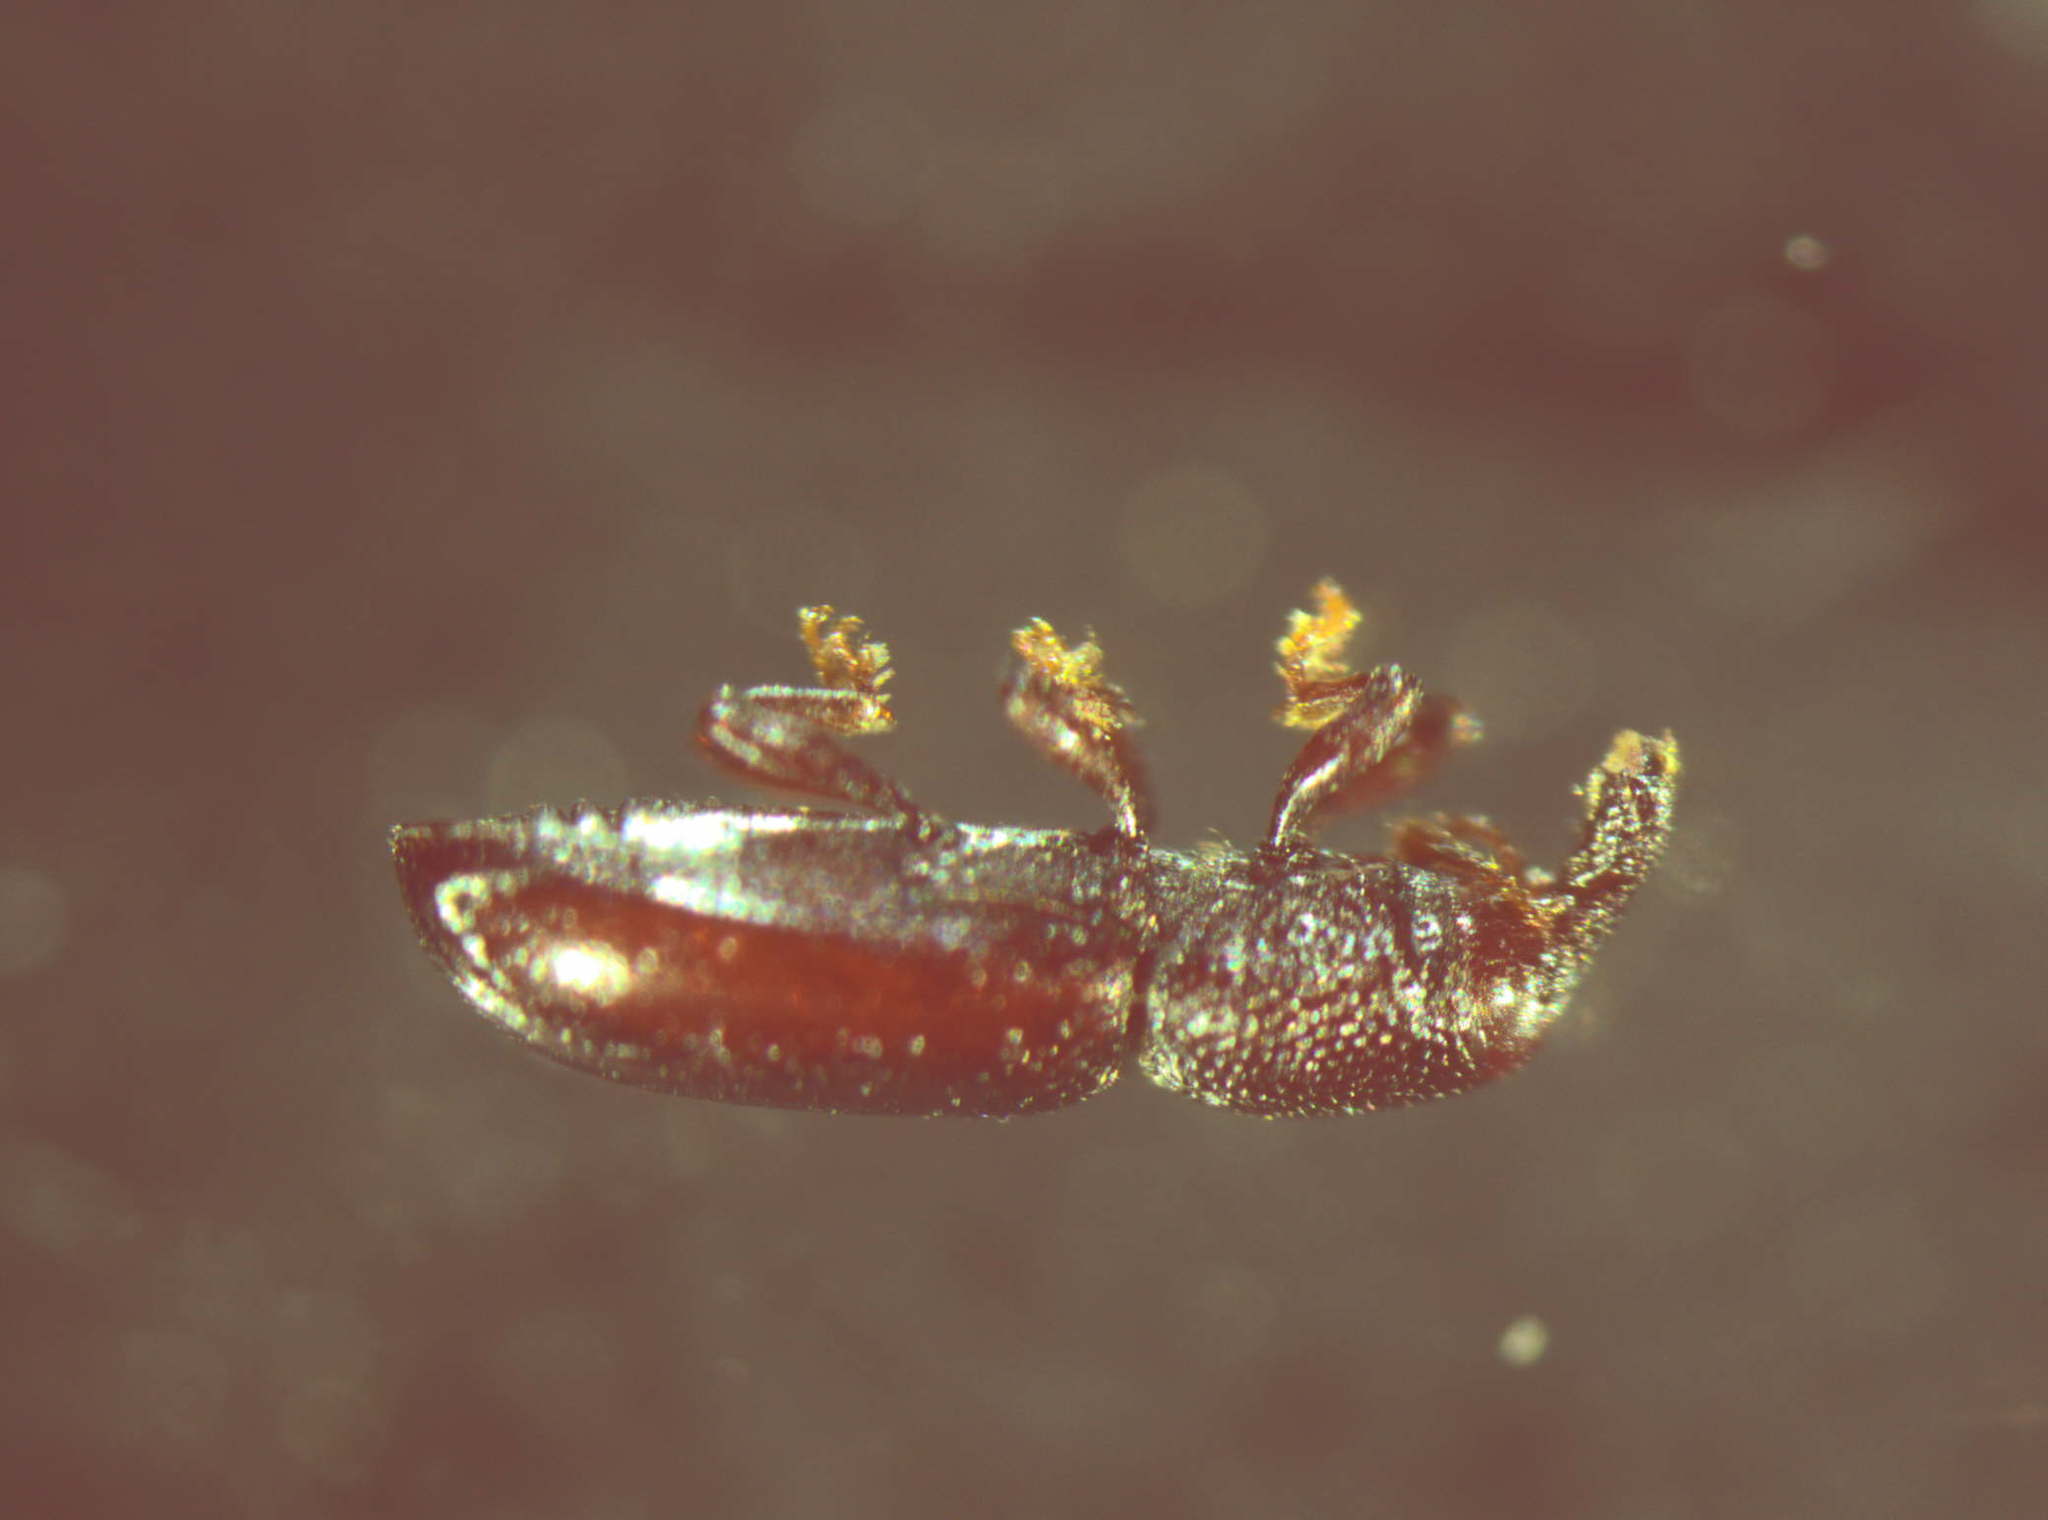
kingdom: Animalia
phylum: Arthropoda
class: Insecta
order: Coleoptera
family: Curculionidae
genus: Microtribus
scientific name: Microtribus huttoni
